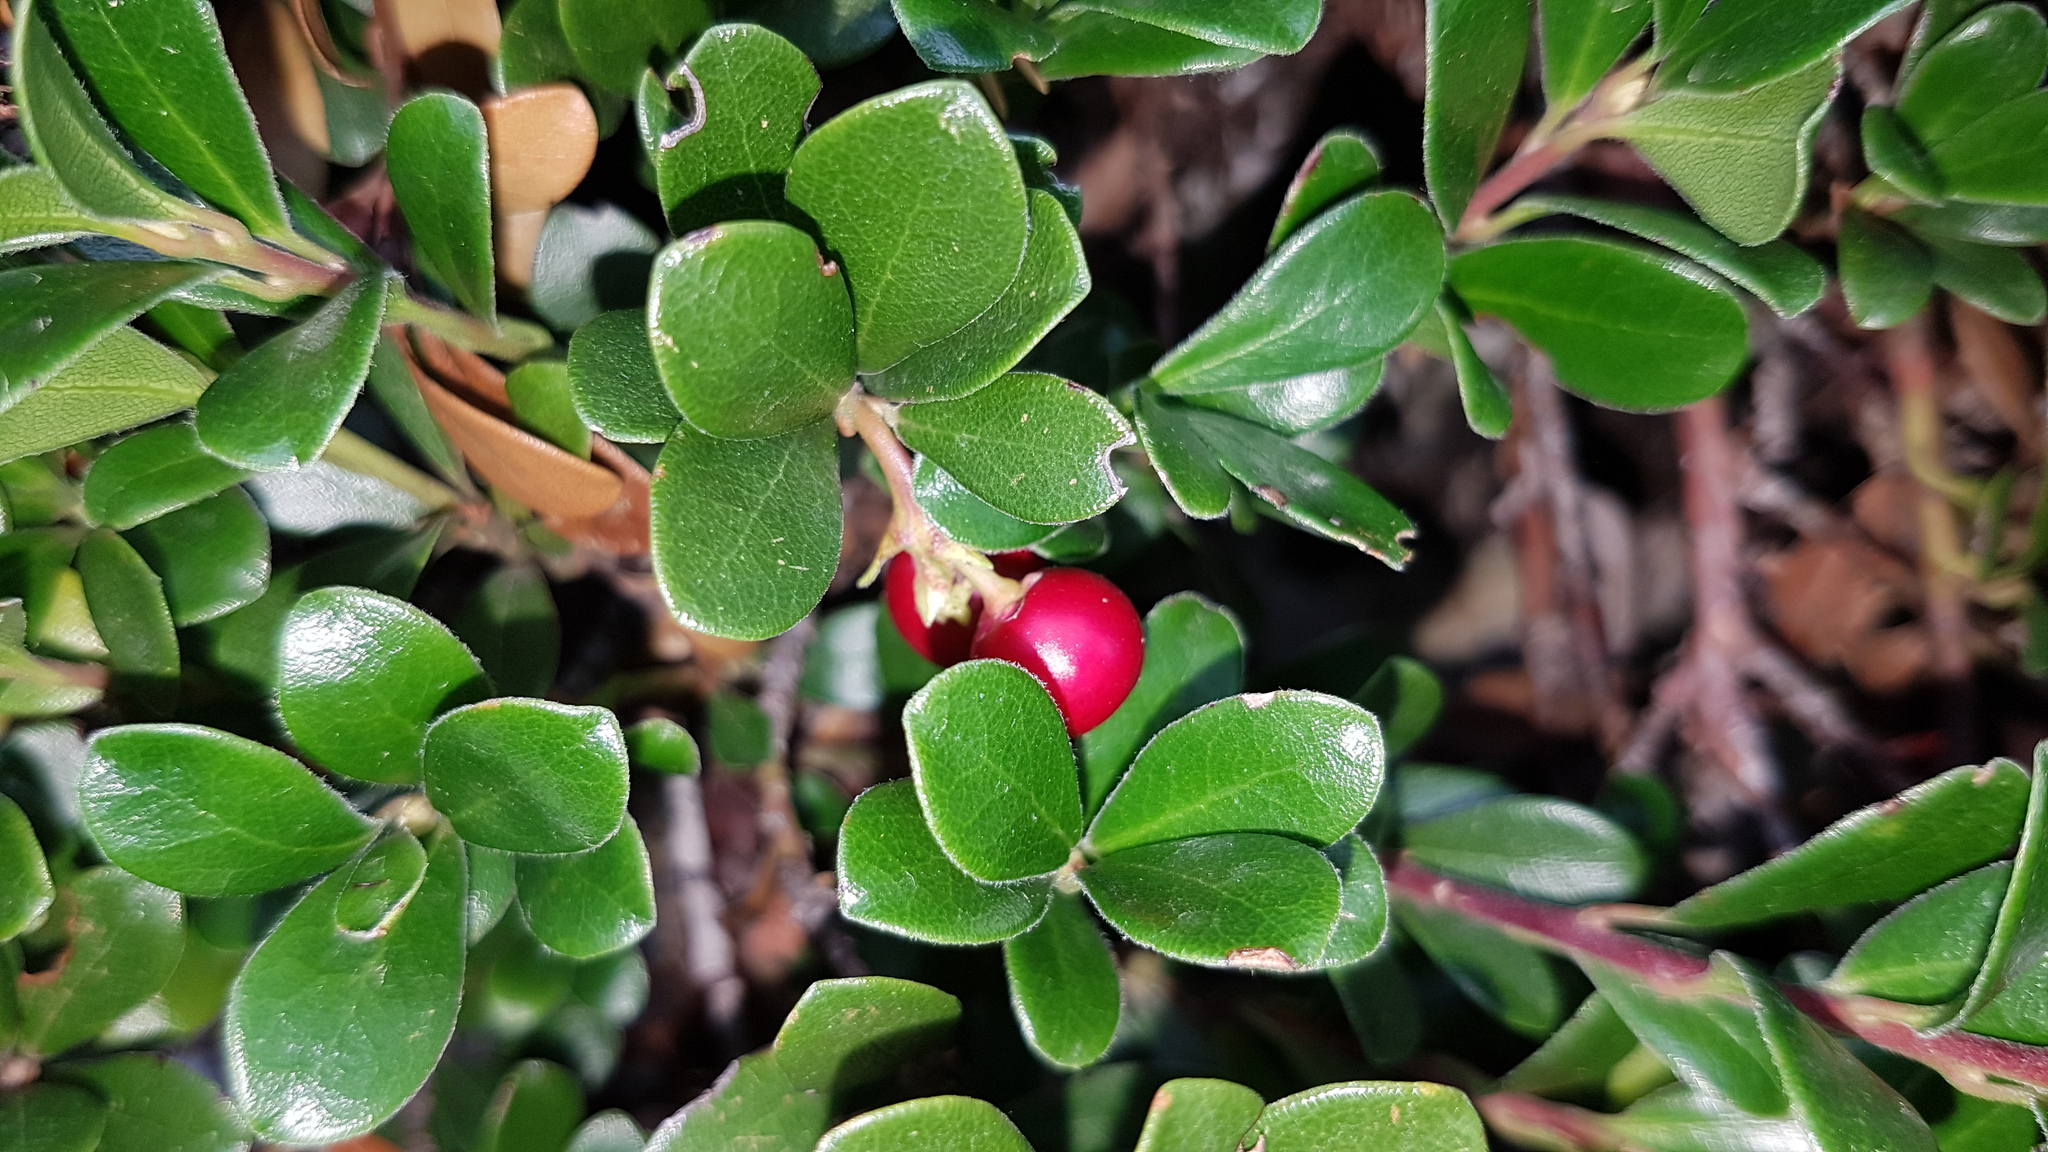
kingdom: Plantae
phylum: Tracheophyta
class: Magnoliopsida
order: Ericales
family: Ericaceae
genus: Arctostaphylos
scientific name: Arctostaphylos uva-ursi
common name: Bearberry
